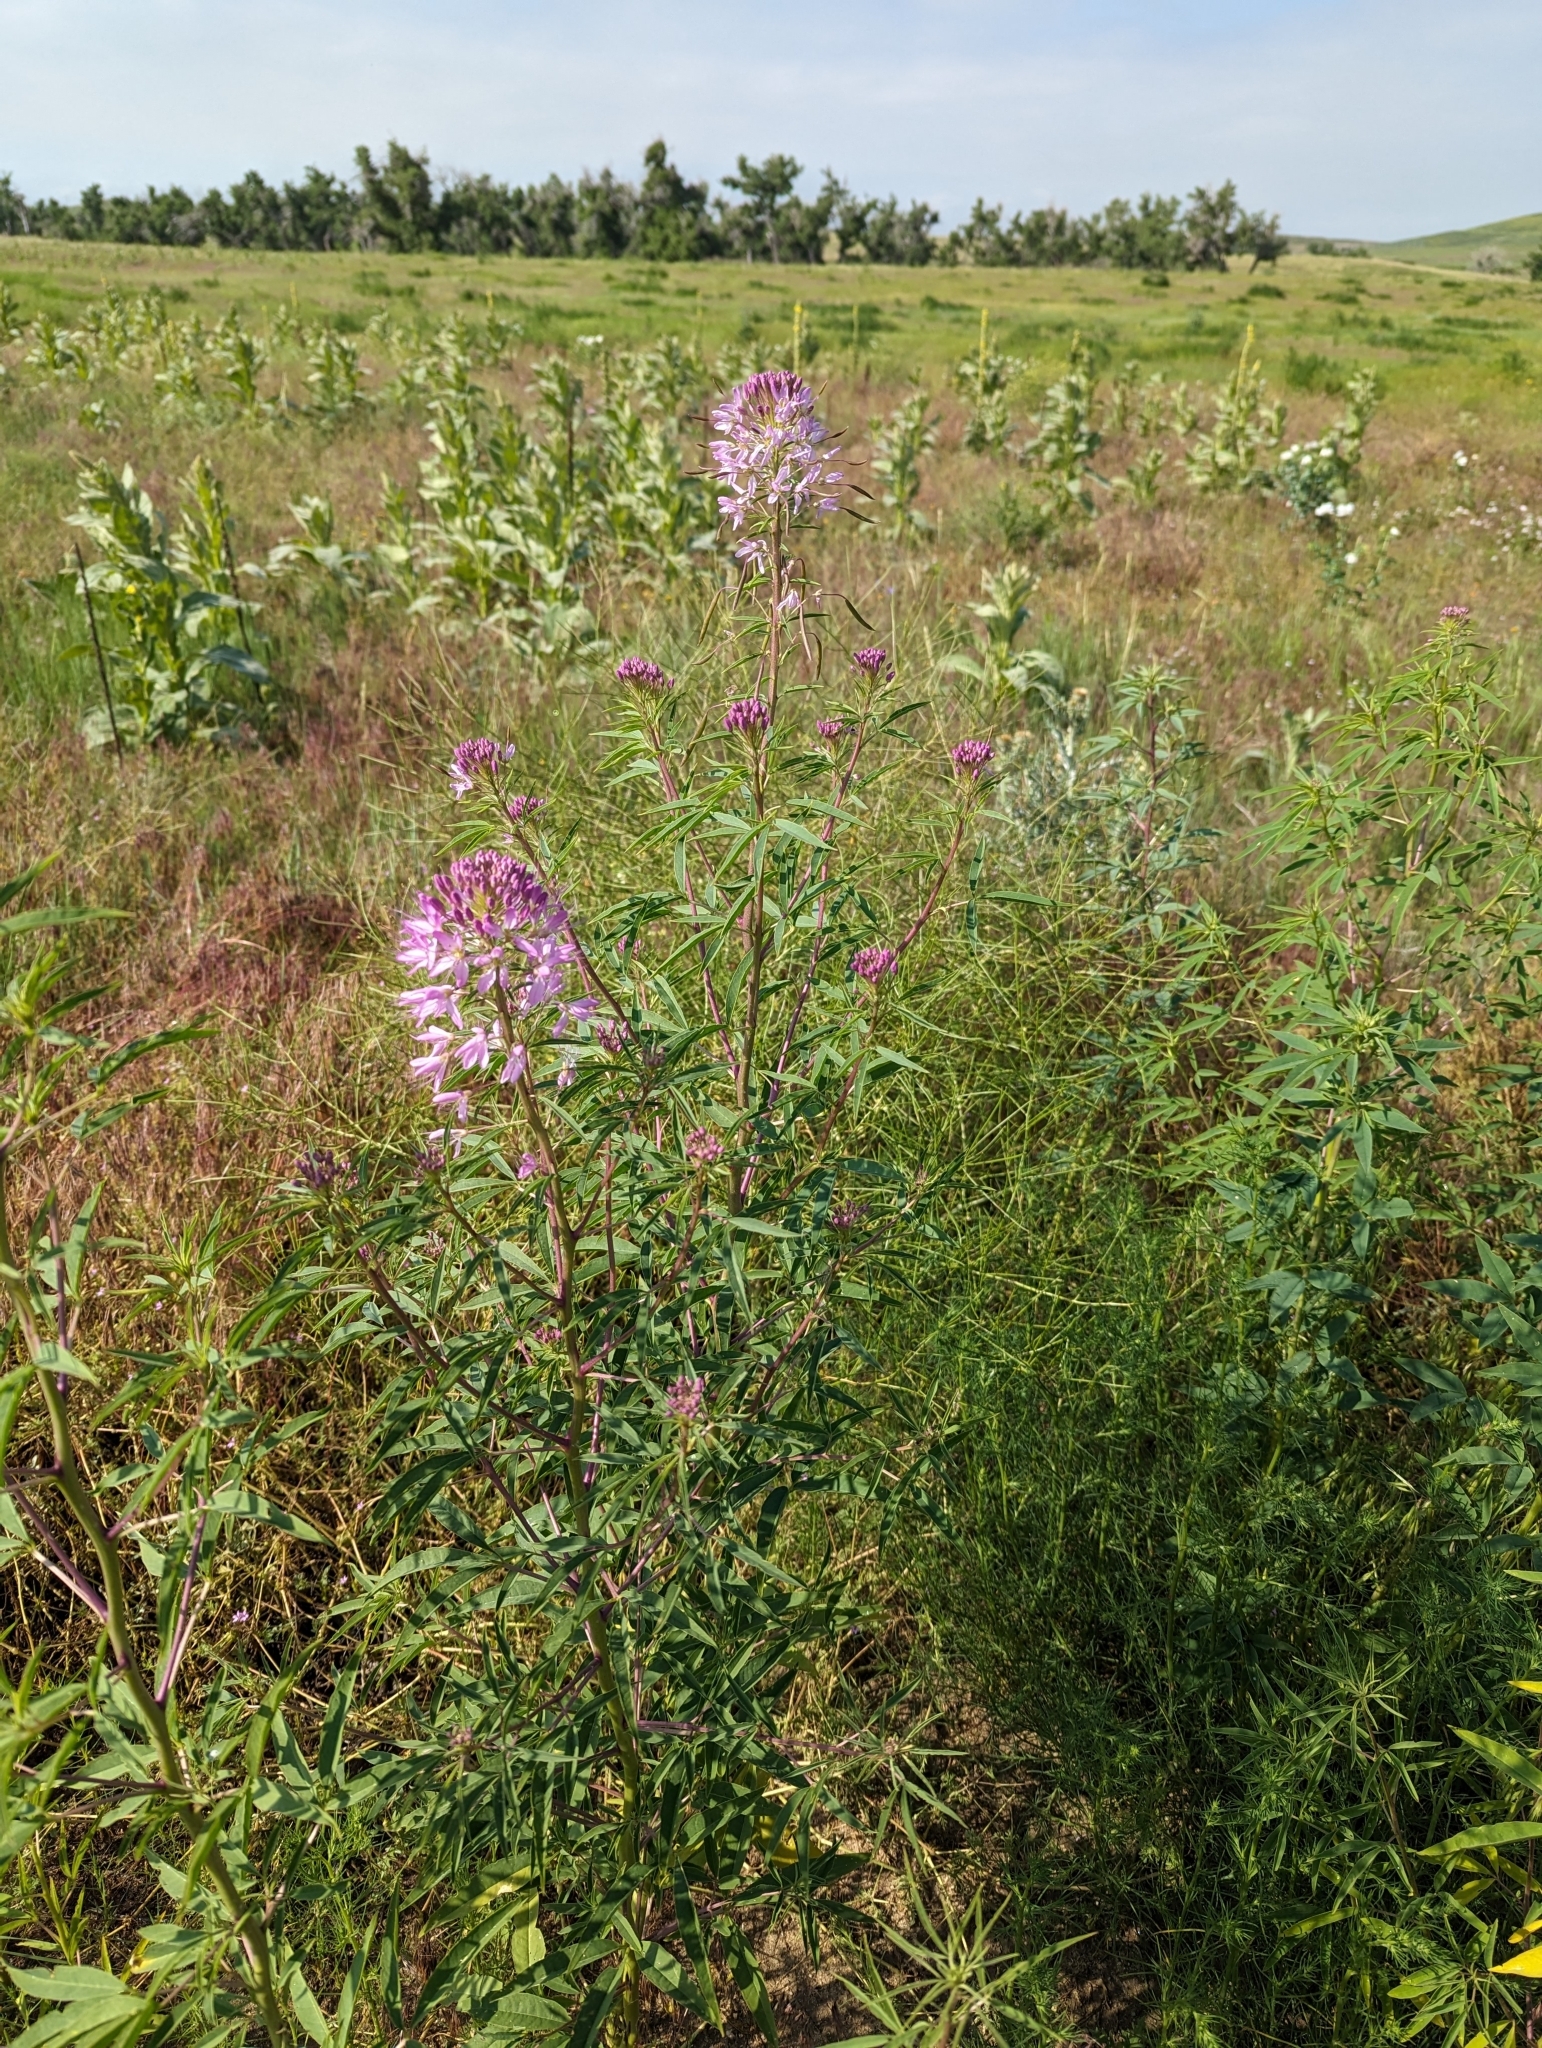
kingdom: Plantae
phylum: Tracheophyta
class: Magnoliopsida
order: Brassicales
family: Cleomaceae
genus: Cleomella
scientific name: Cleomella serrulata
